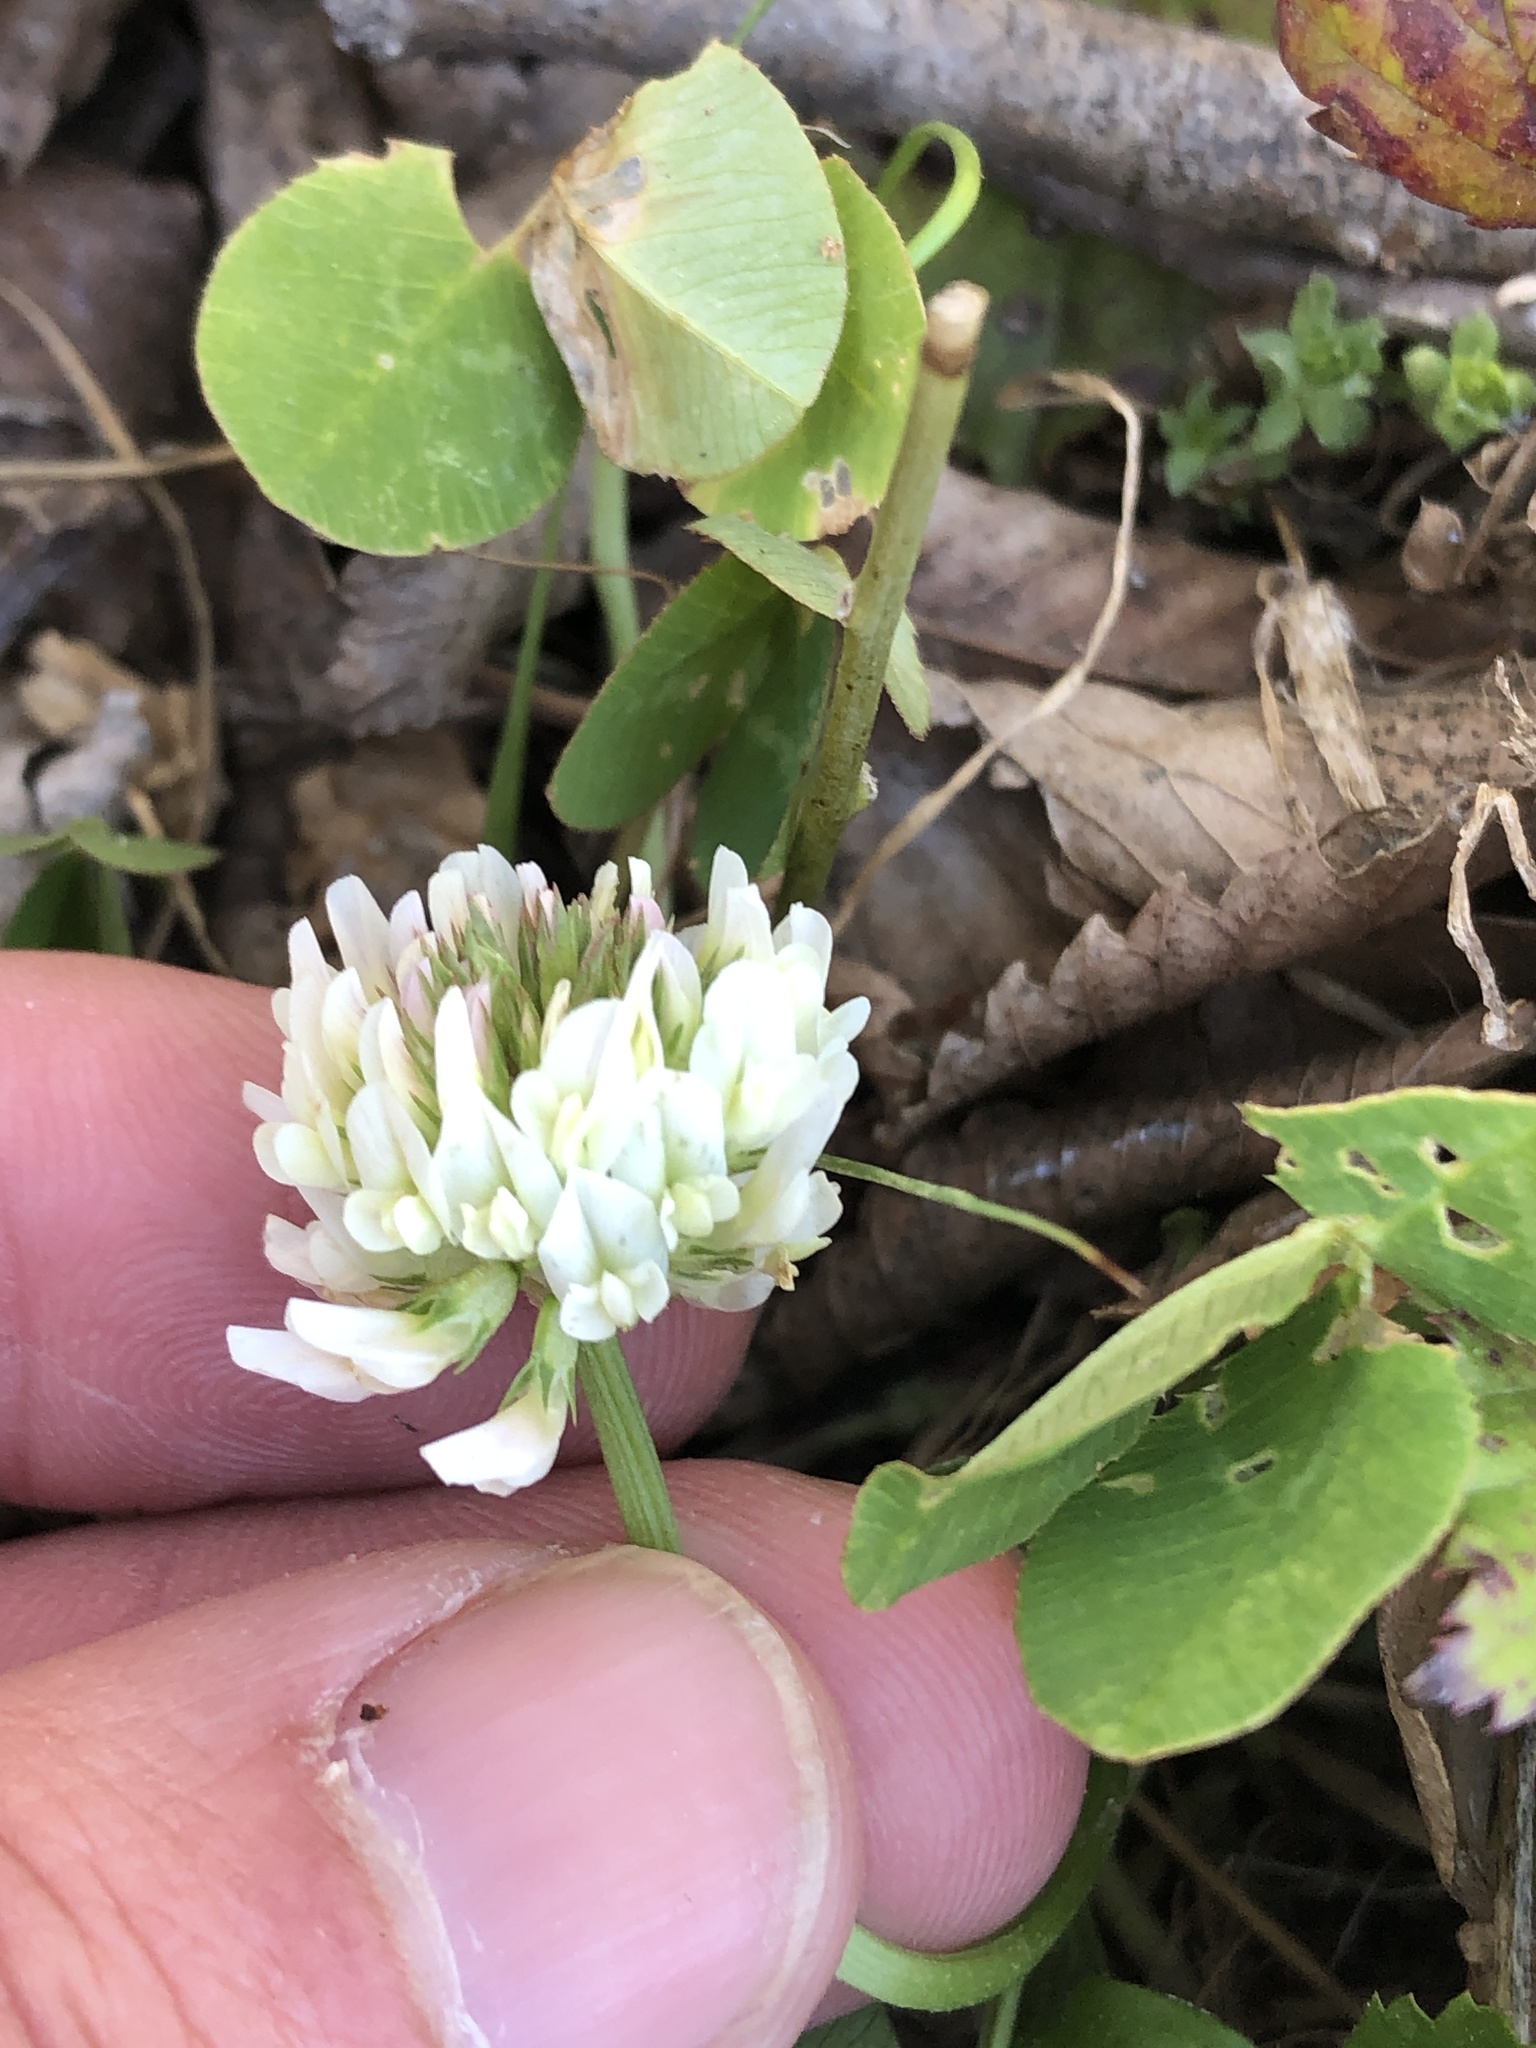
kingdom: Plantae
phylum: Tracheophyta
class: Magnoliopsida
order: Fabales
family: Fabaceae
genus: Trifolium
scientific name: Trifolium repens
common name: White clover
